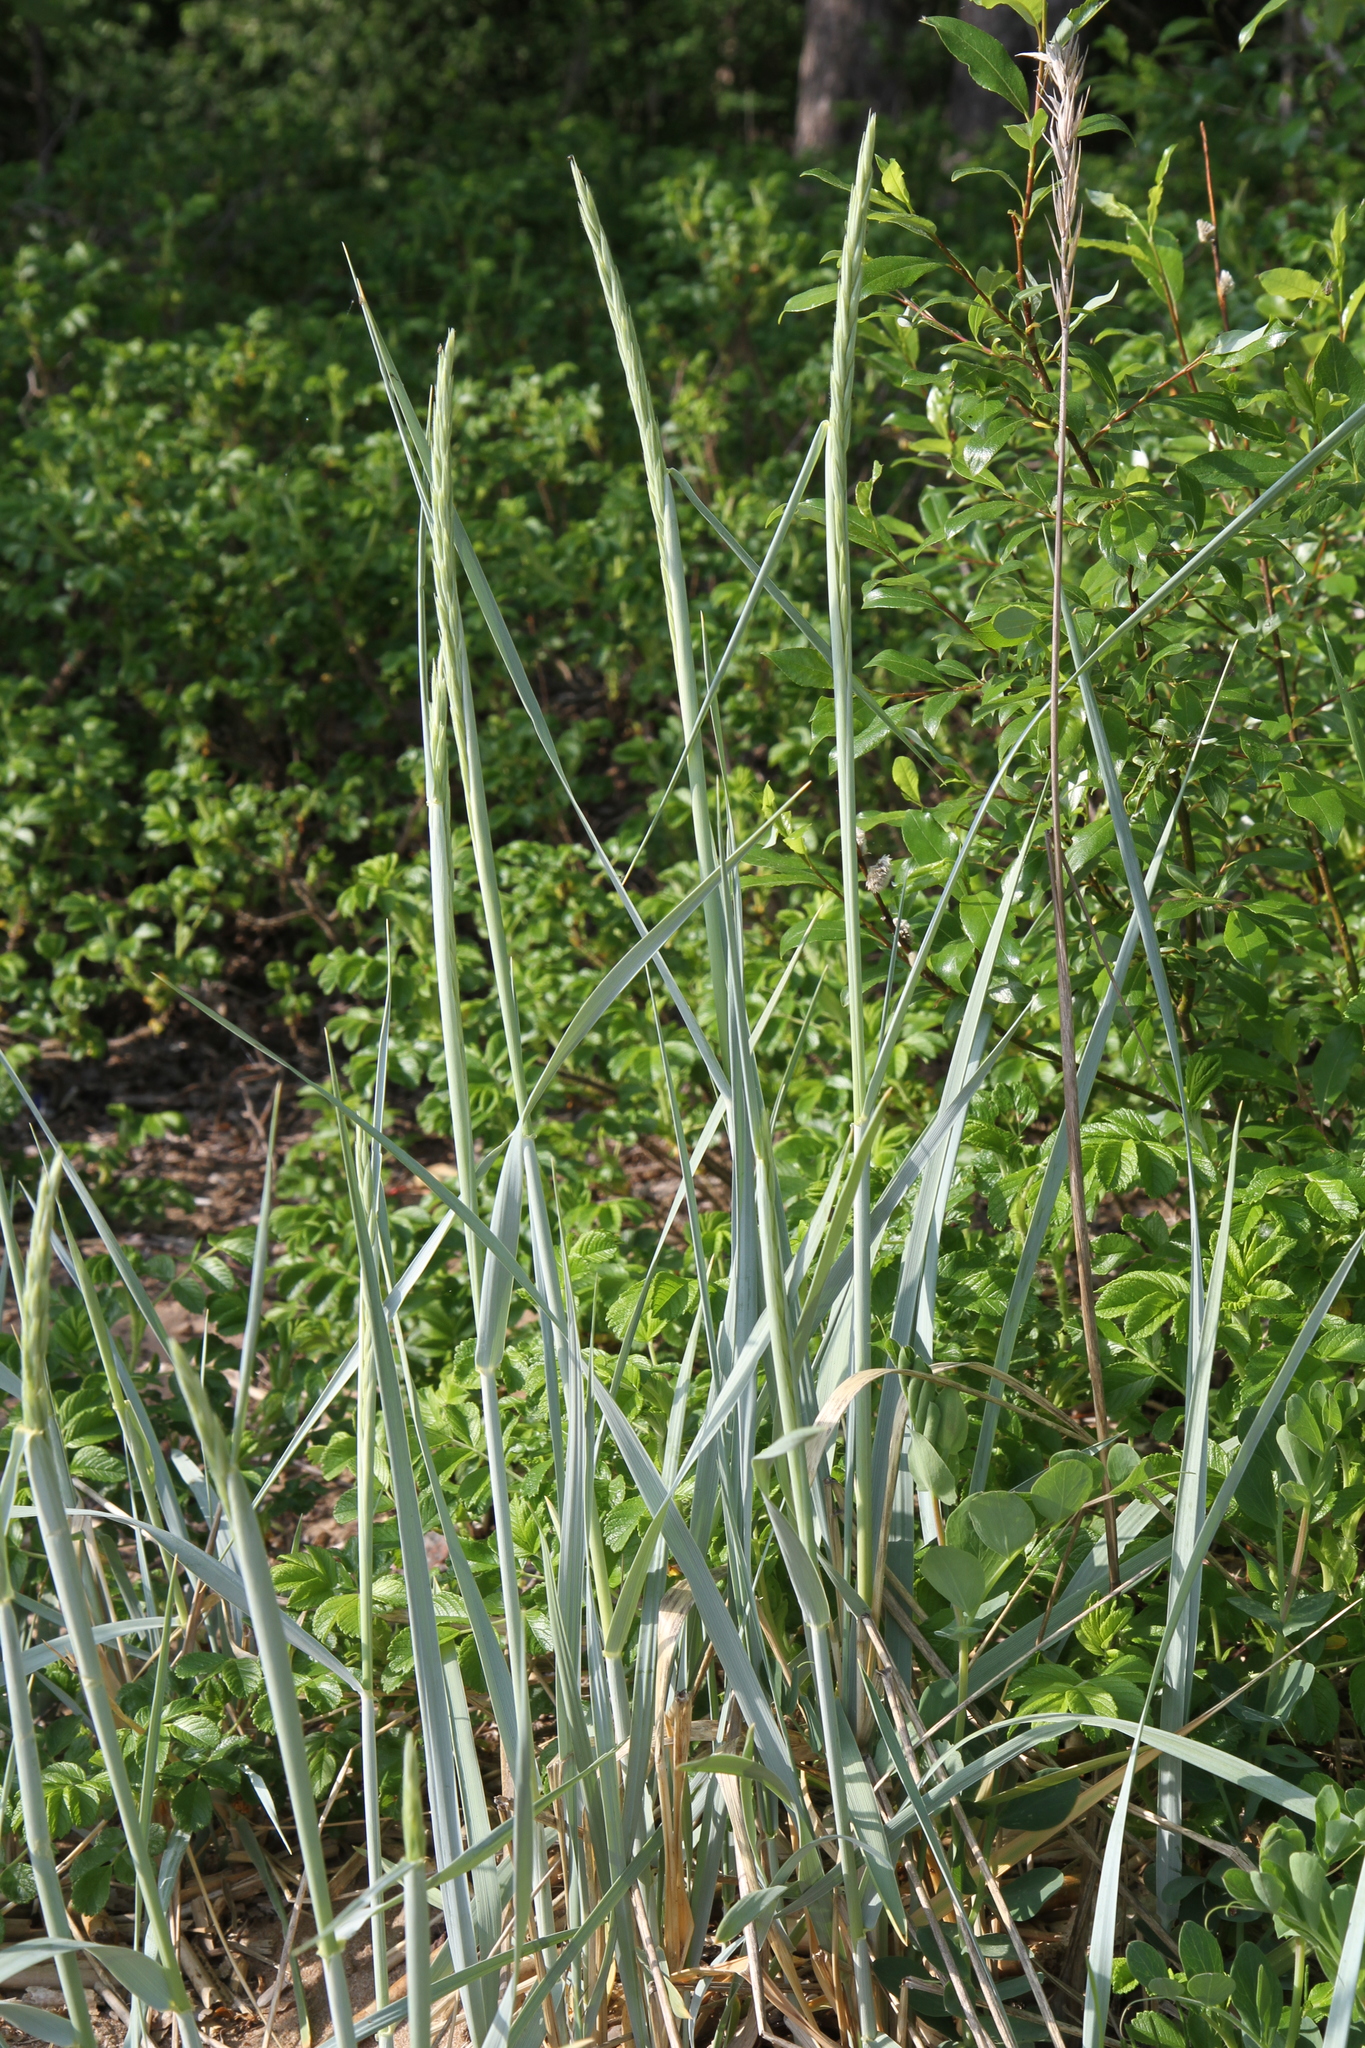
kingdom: Plantae
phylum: Tracheophyta
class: Liliopsida
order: Poales
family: Poaceae
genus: Leymus
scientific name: Leymus arenarius
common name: Lyme-grass
